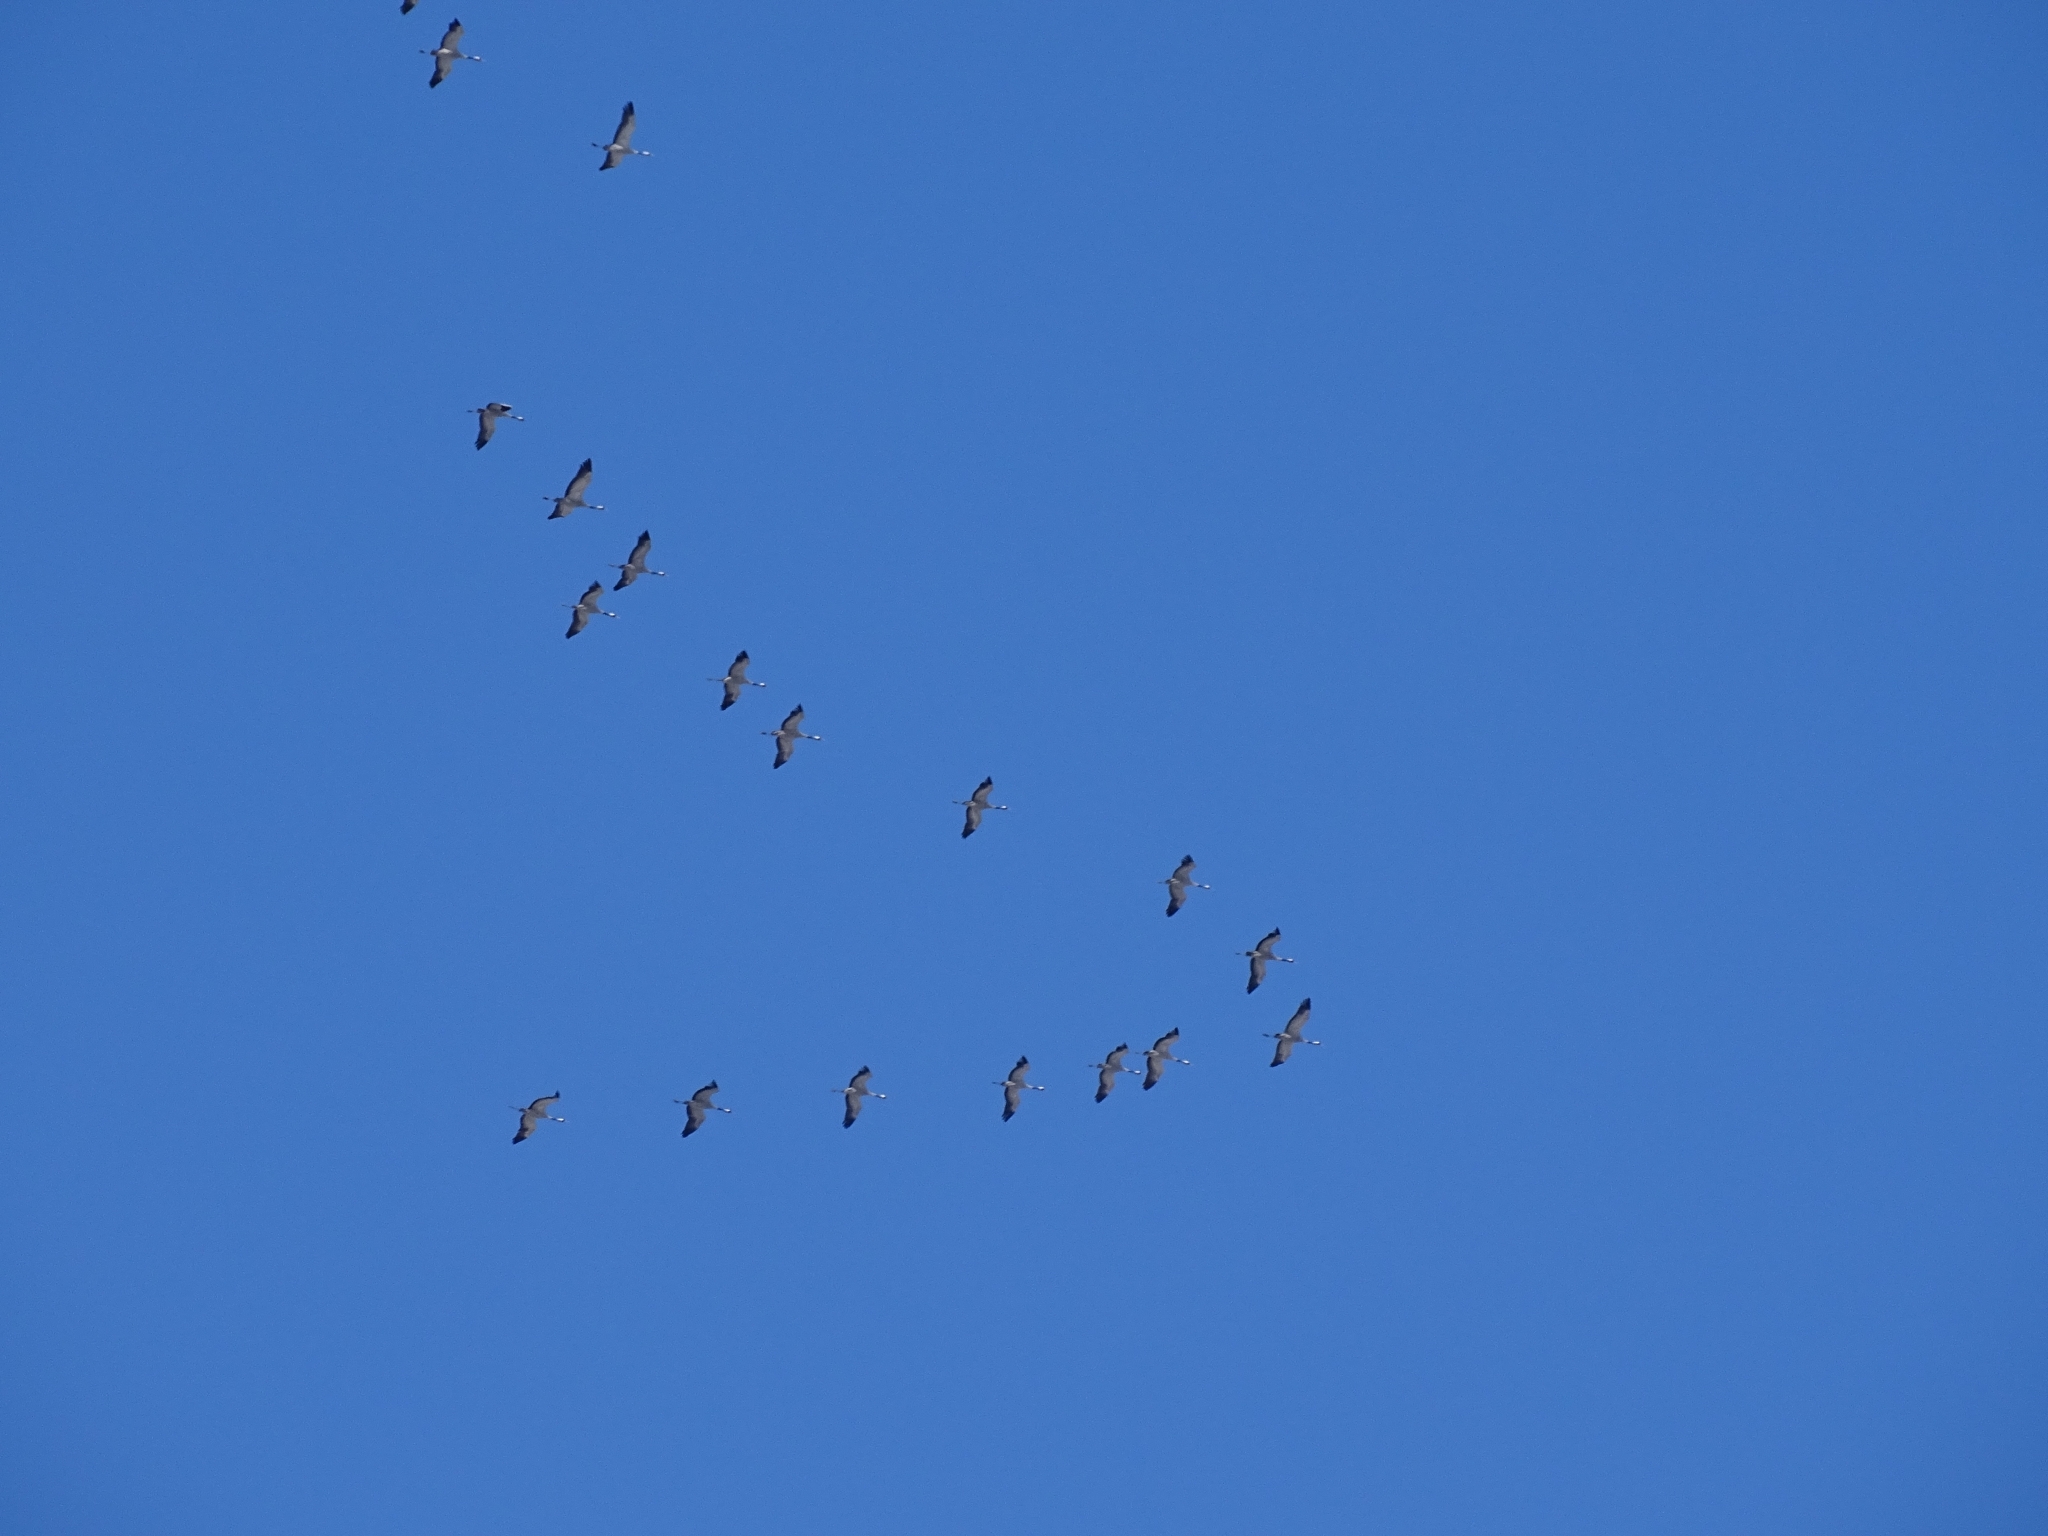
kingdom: Animalia
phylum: Chordata
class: Aves
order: Gruiformes
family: Gruidae
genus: Grus
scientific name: Grus grus
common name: Common crane
